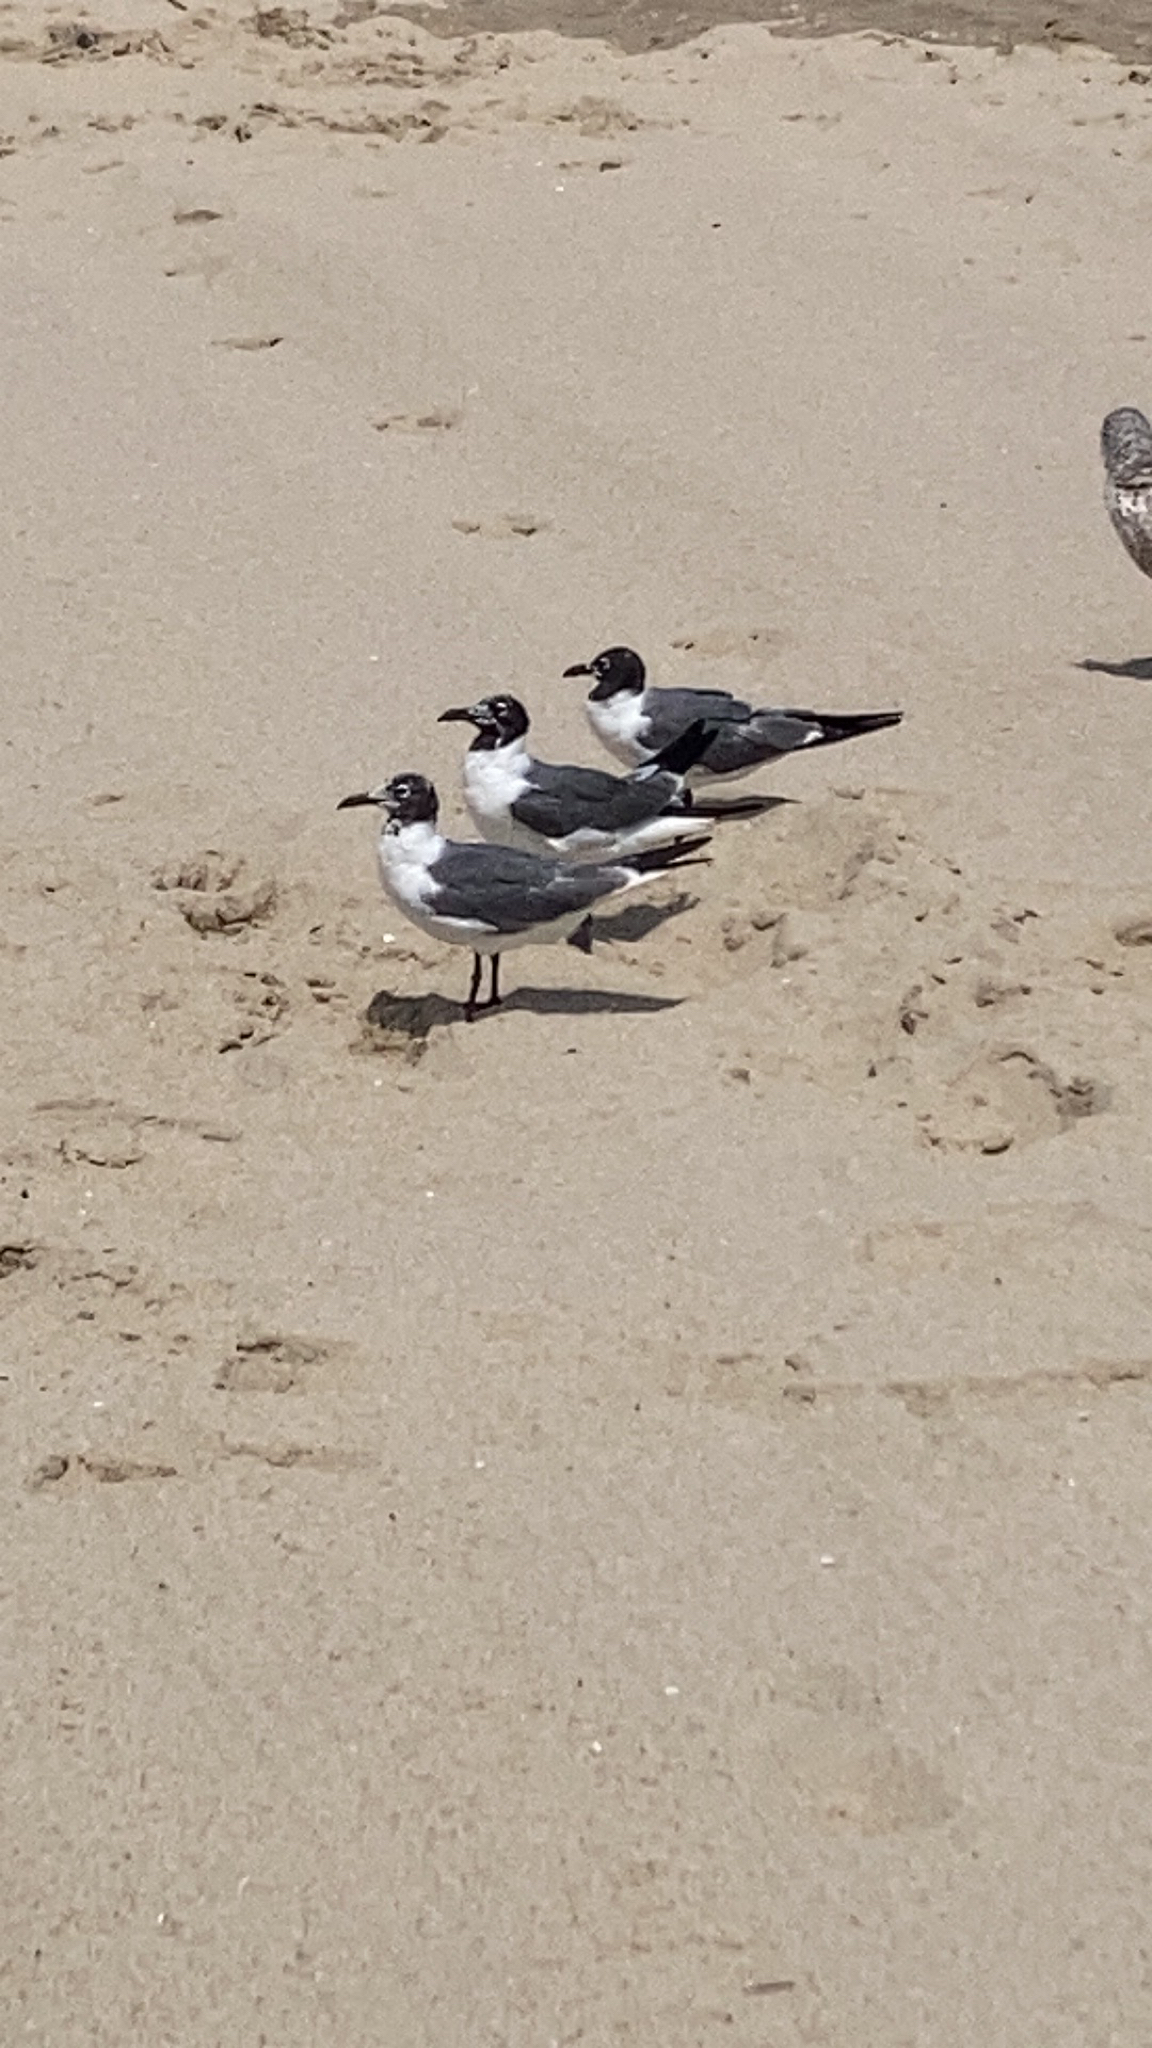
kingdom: Animalia
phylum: Chordata
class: Aves
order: Charadriiformes
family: Laridae
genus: Leucophaeus
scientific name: Leucophaeus atricilla
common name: Laughing gull
